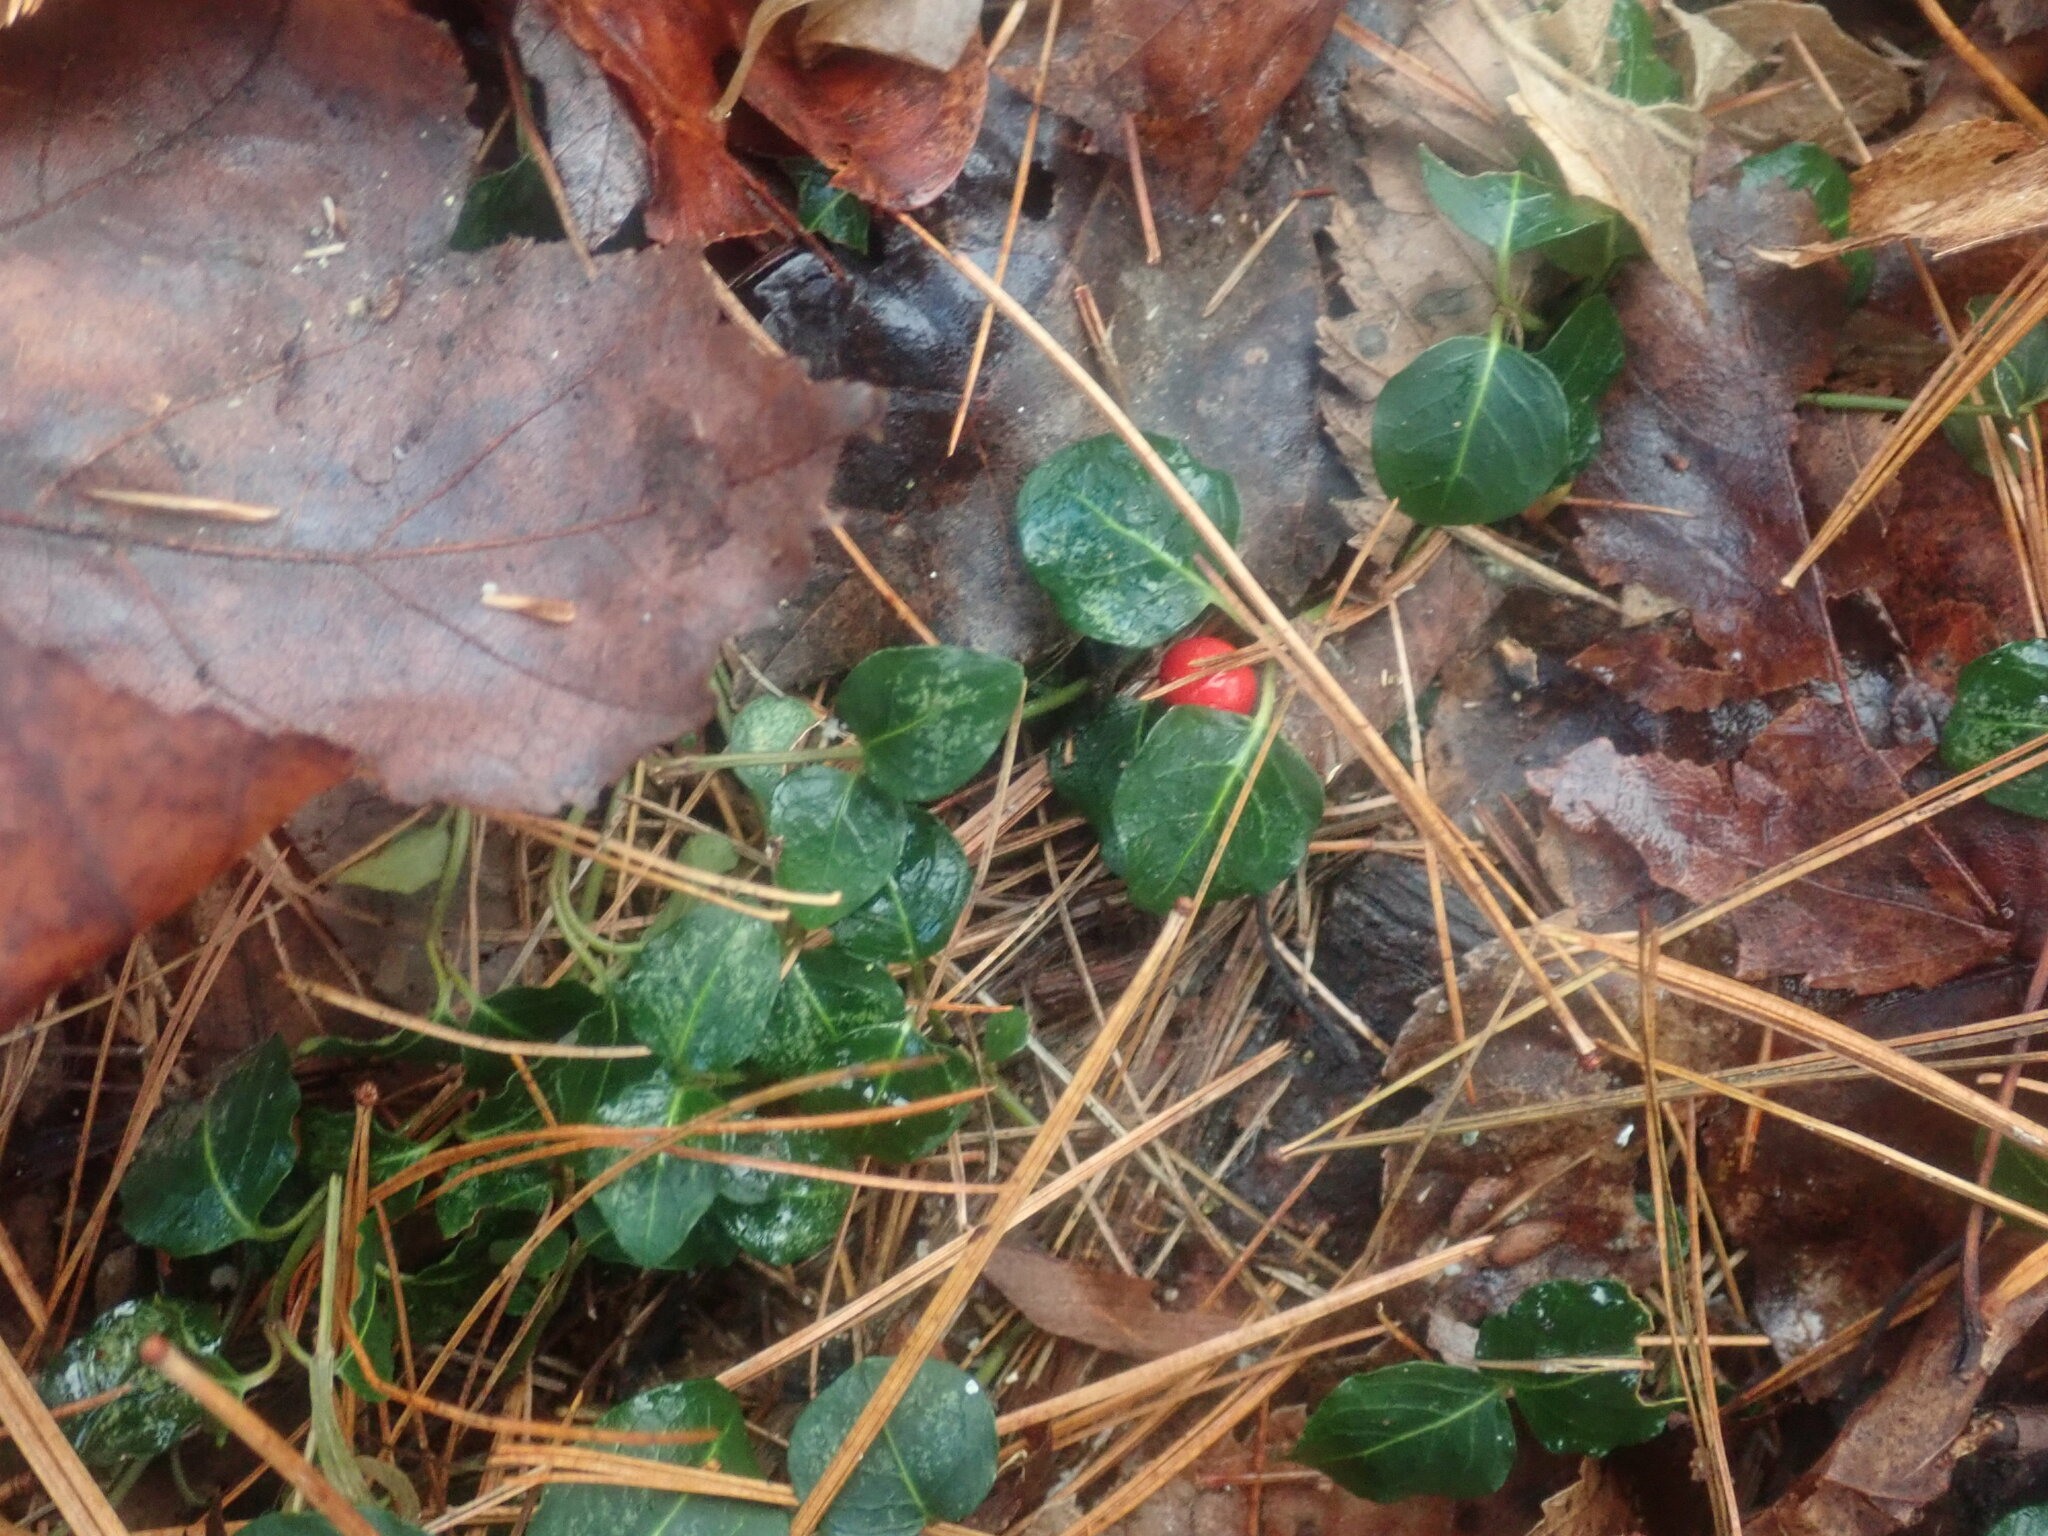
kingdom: Plantae
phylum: Tracheophyta
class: Magnoliopsida
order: Gentianales
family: Rubiaceae
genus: Mitchella
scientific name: Mitchella repens
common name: Partridge-berry
